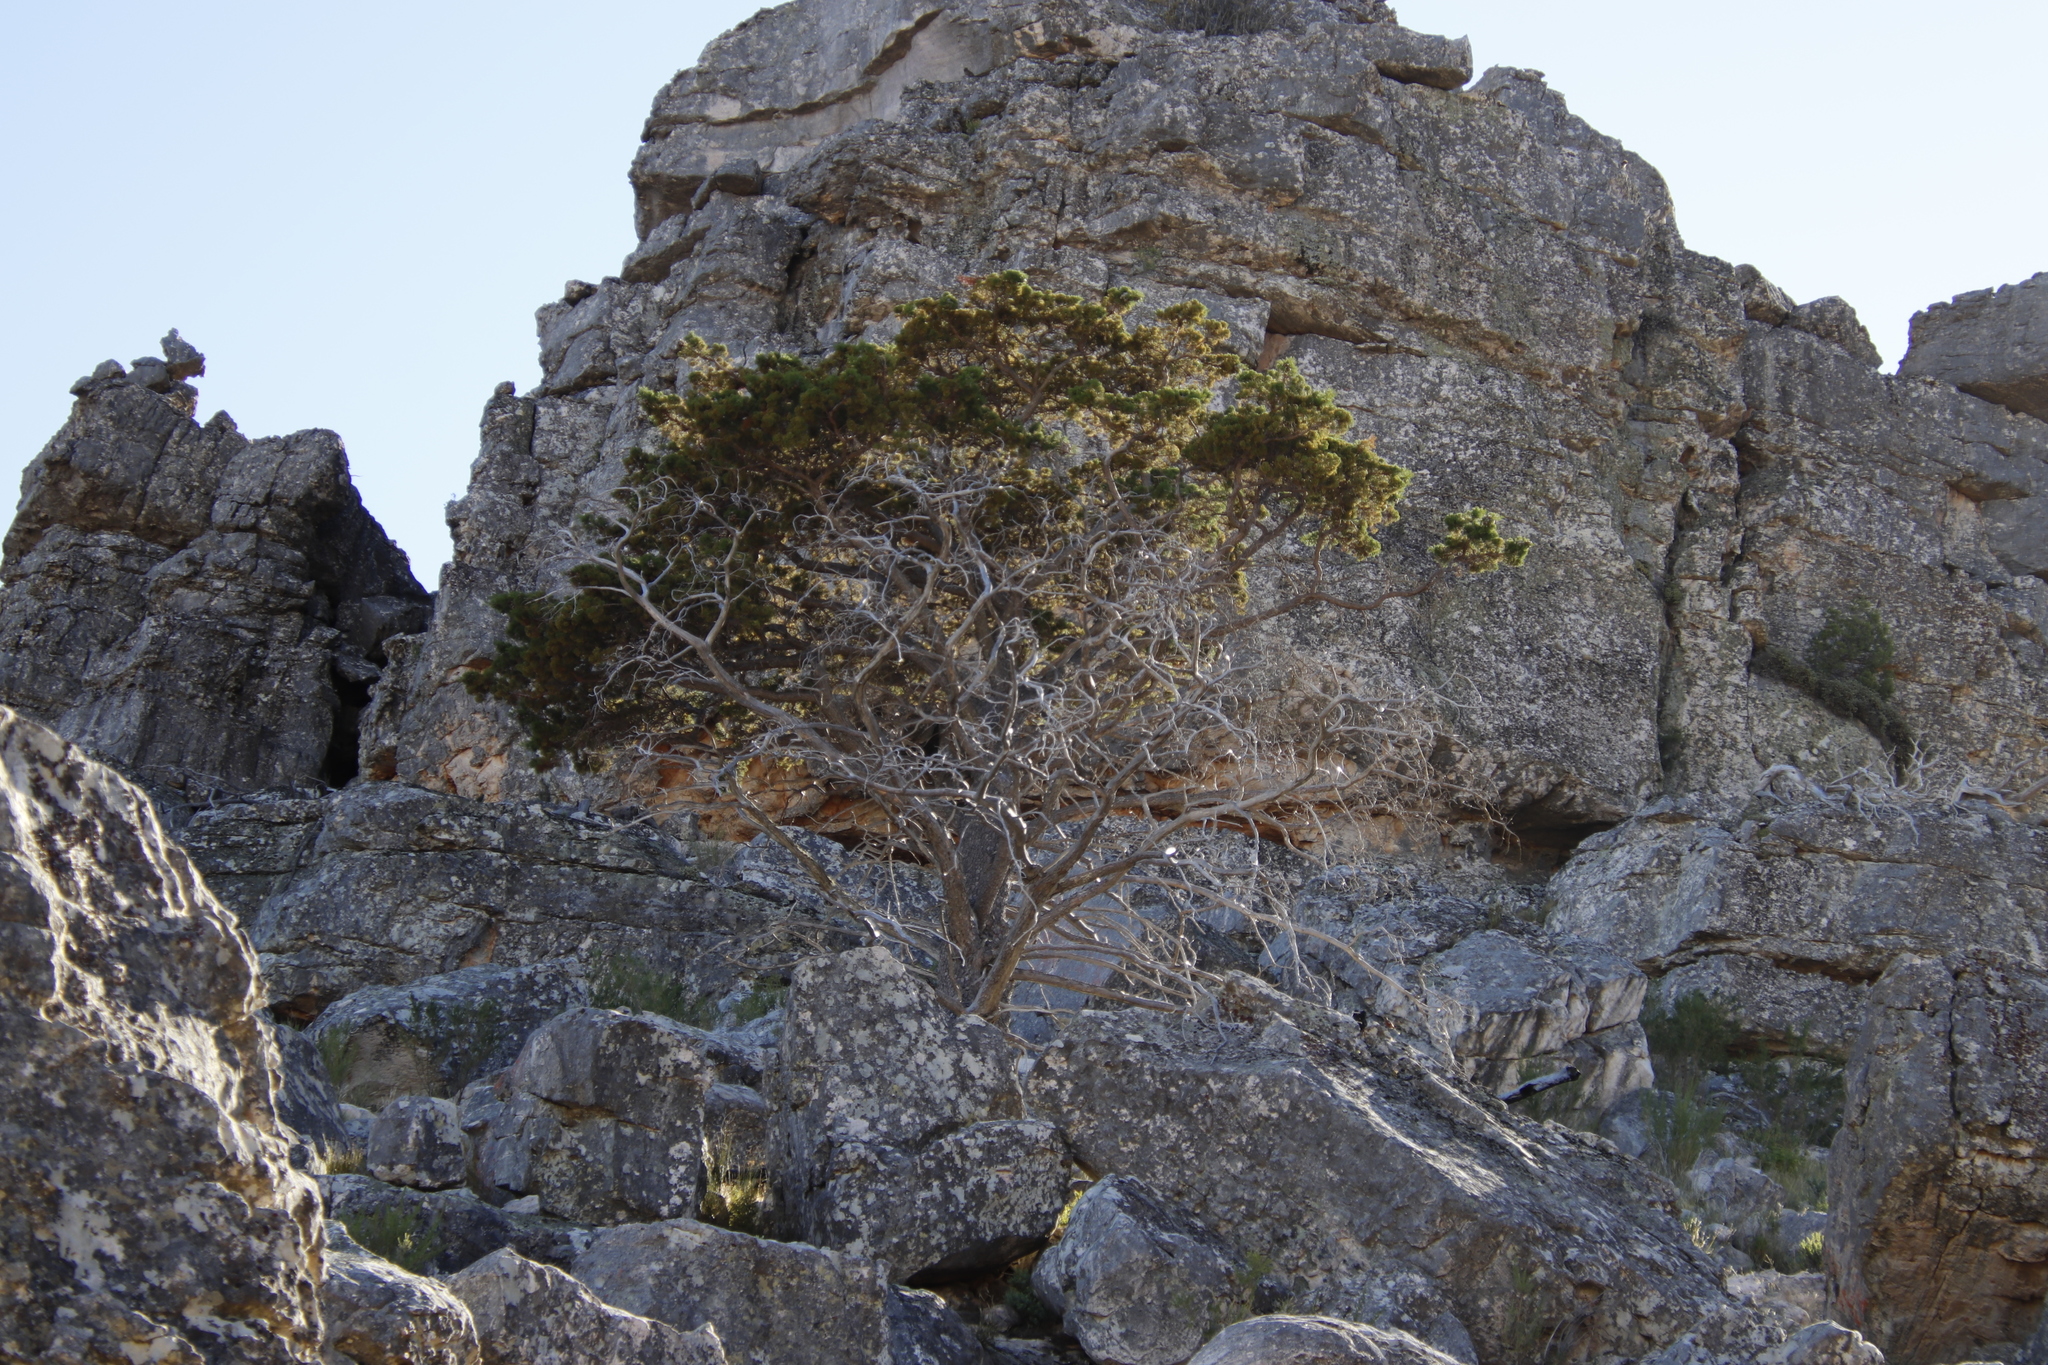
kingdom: Plantae
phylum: Tracheophyta
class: Pinopsida
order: Pinales
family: Cupressaceae
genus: Widdringtonia
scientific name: Widdringtonia nodiflora
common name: Cape cypress
